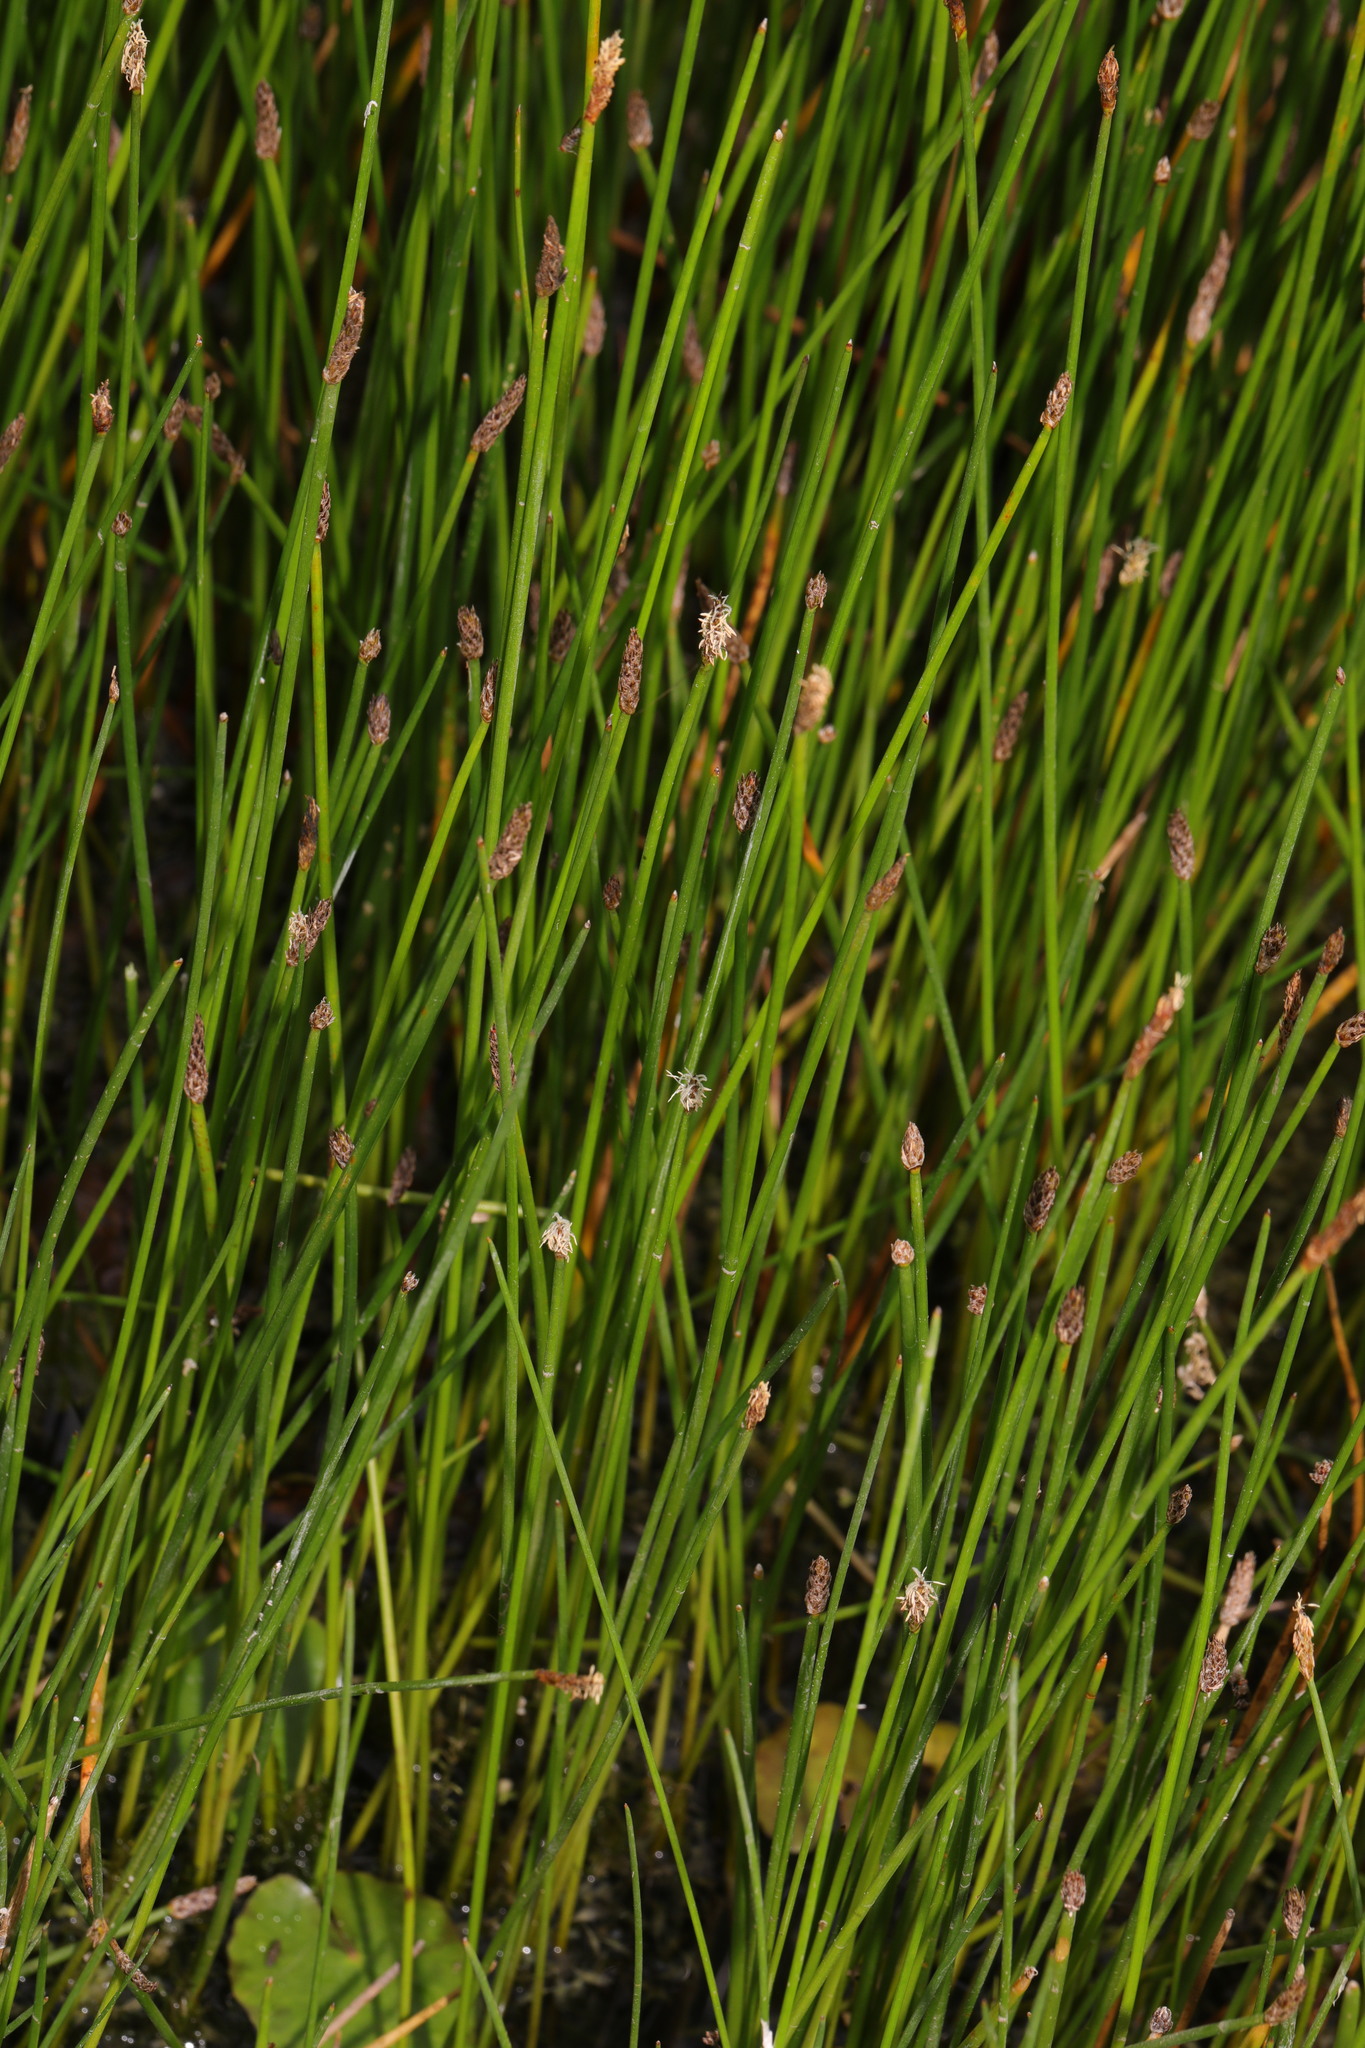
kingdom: Plantae
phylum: Tracheophyta
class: Liliopsida
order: Poales
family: Cyperaceae
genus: Eleocharis
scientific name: Eleocharis palustris
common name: Common spike-rush
